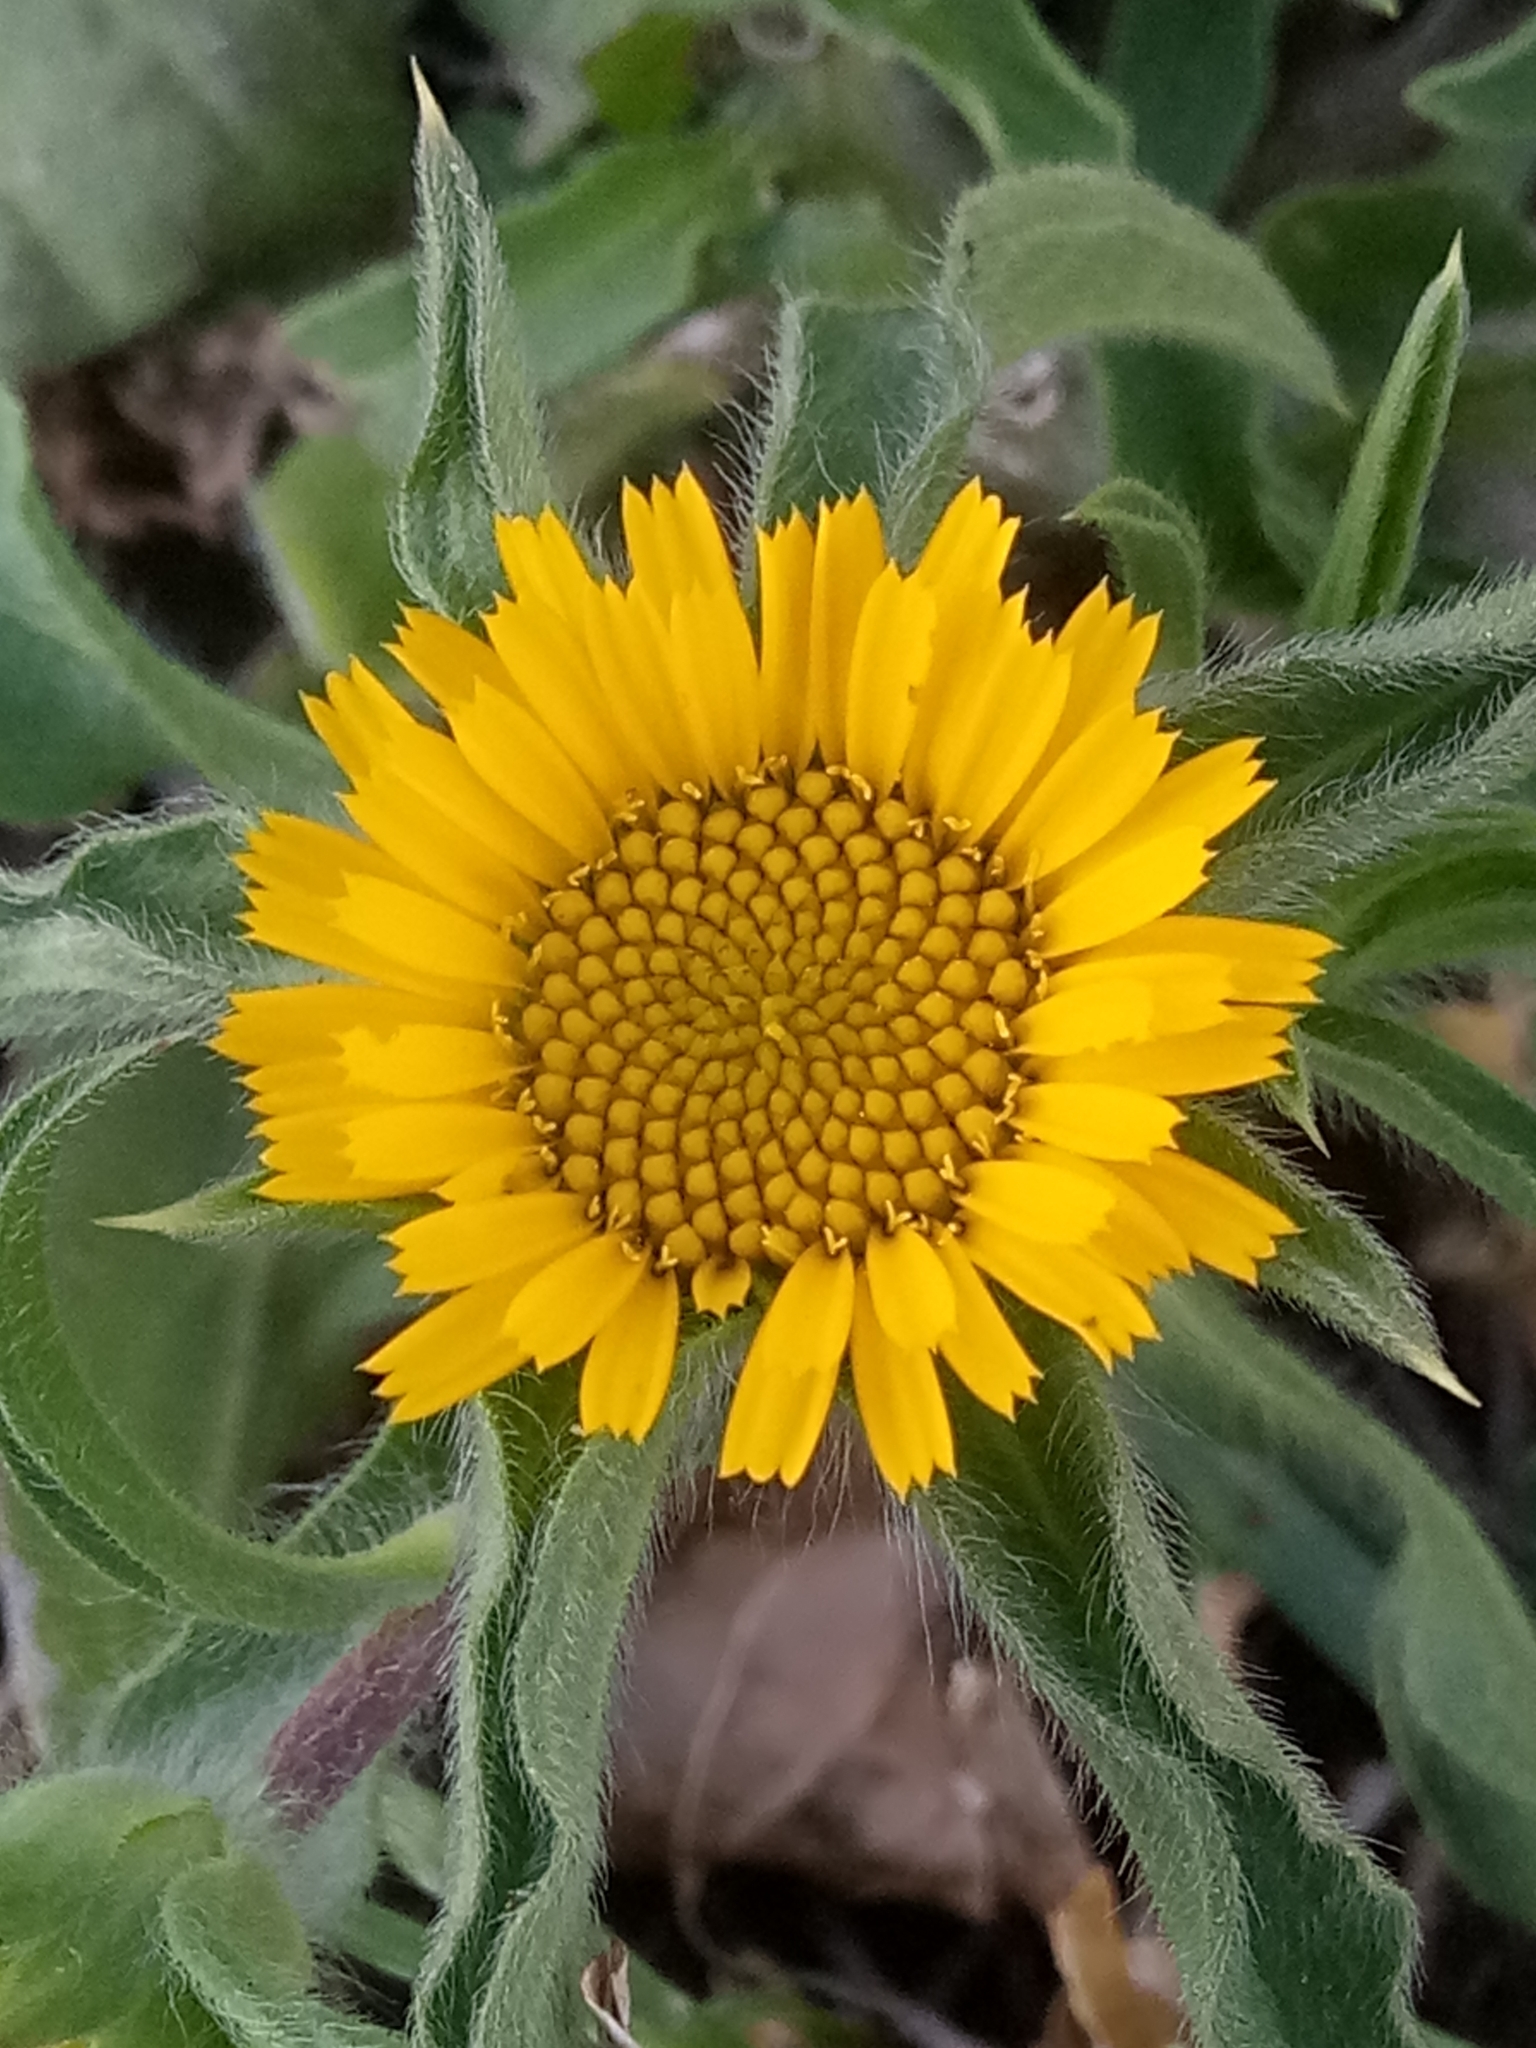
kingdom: Plantae
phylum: Tracheophyta
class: Magnoliopsida
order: Asterales
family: Asteraceae
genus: Pallenis
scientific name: Pallenis spinosa
